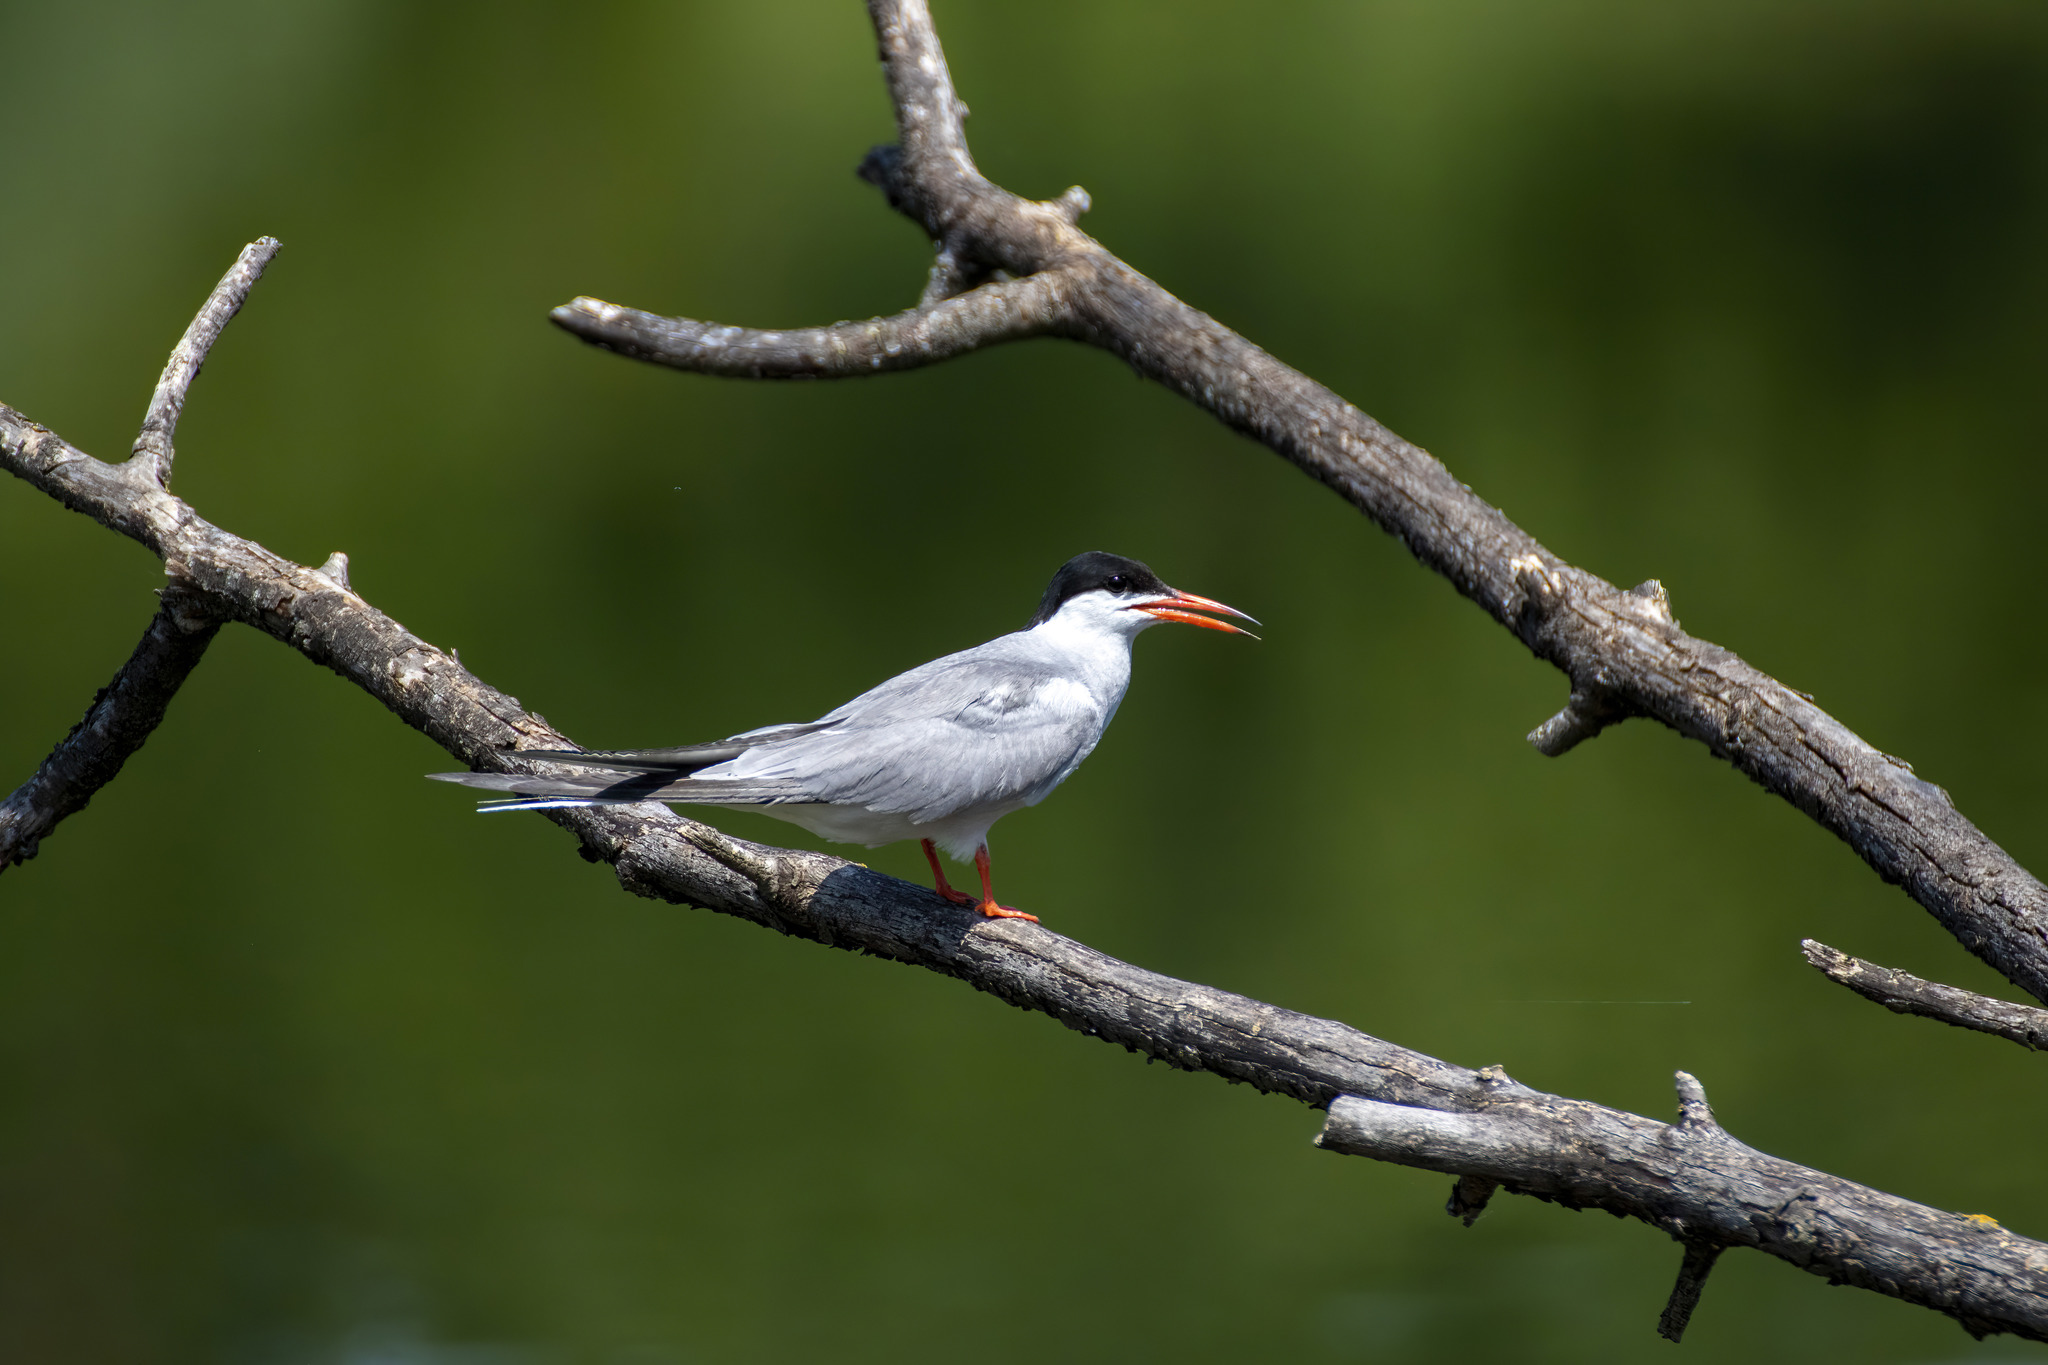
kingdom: Animalia
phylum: Chordata
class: Aves
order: Charadriiformes
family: Laridae
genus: Sterna
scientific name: Sterna hirundo
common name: Common tern
